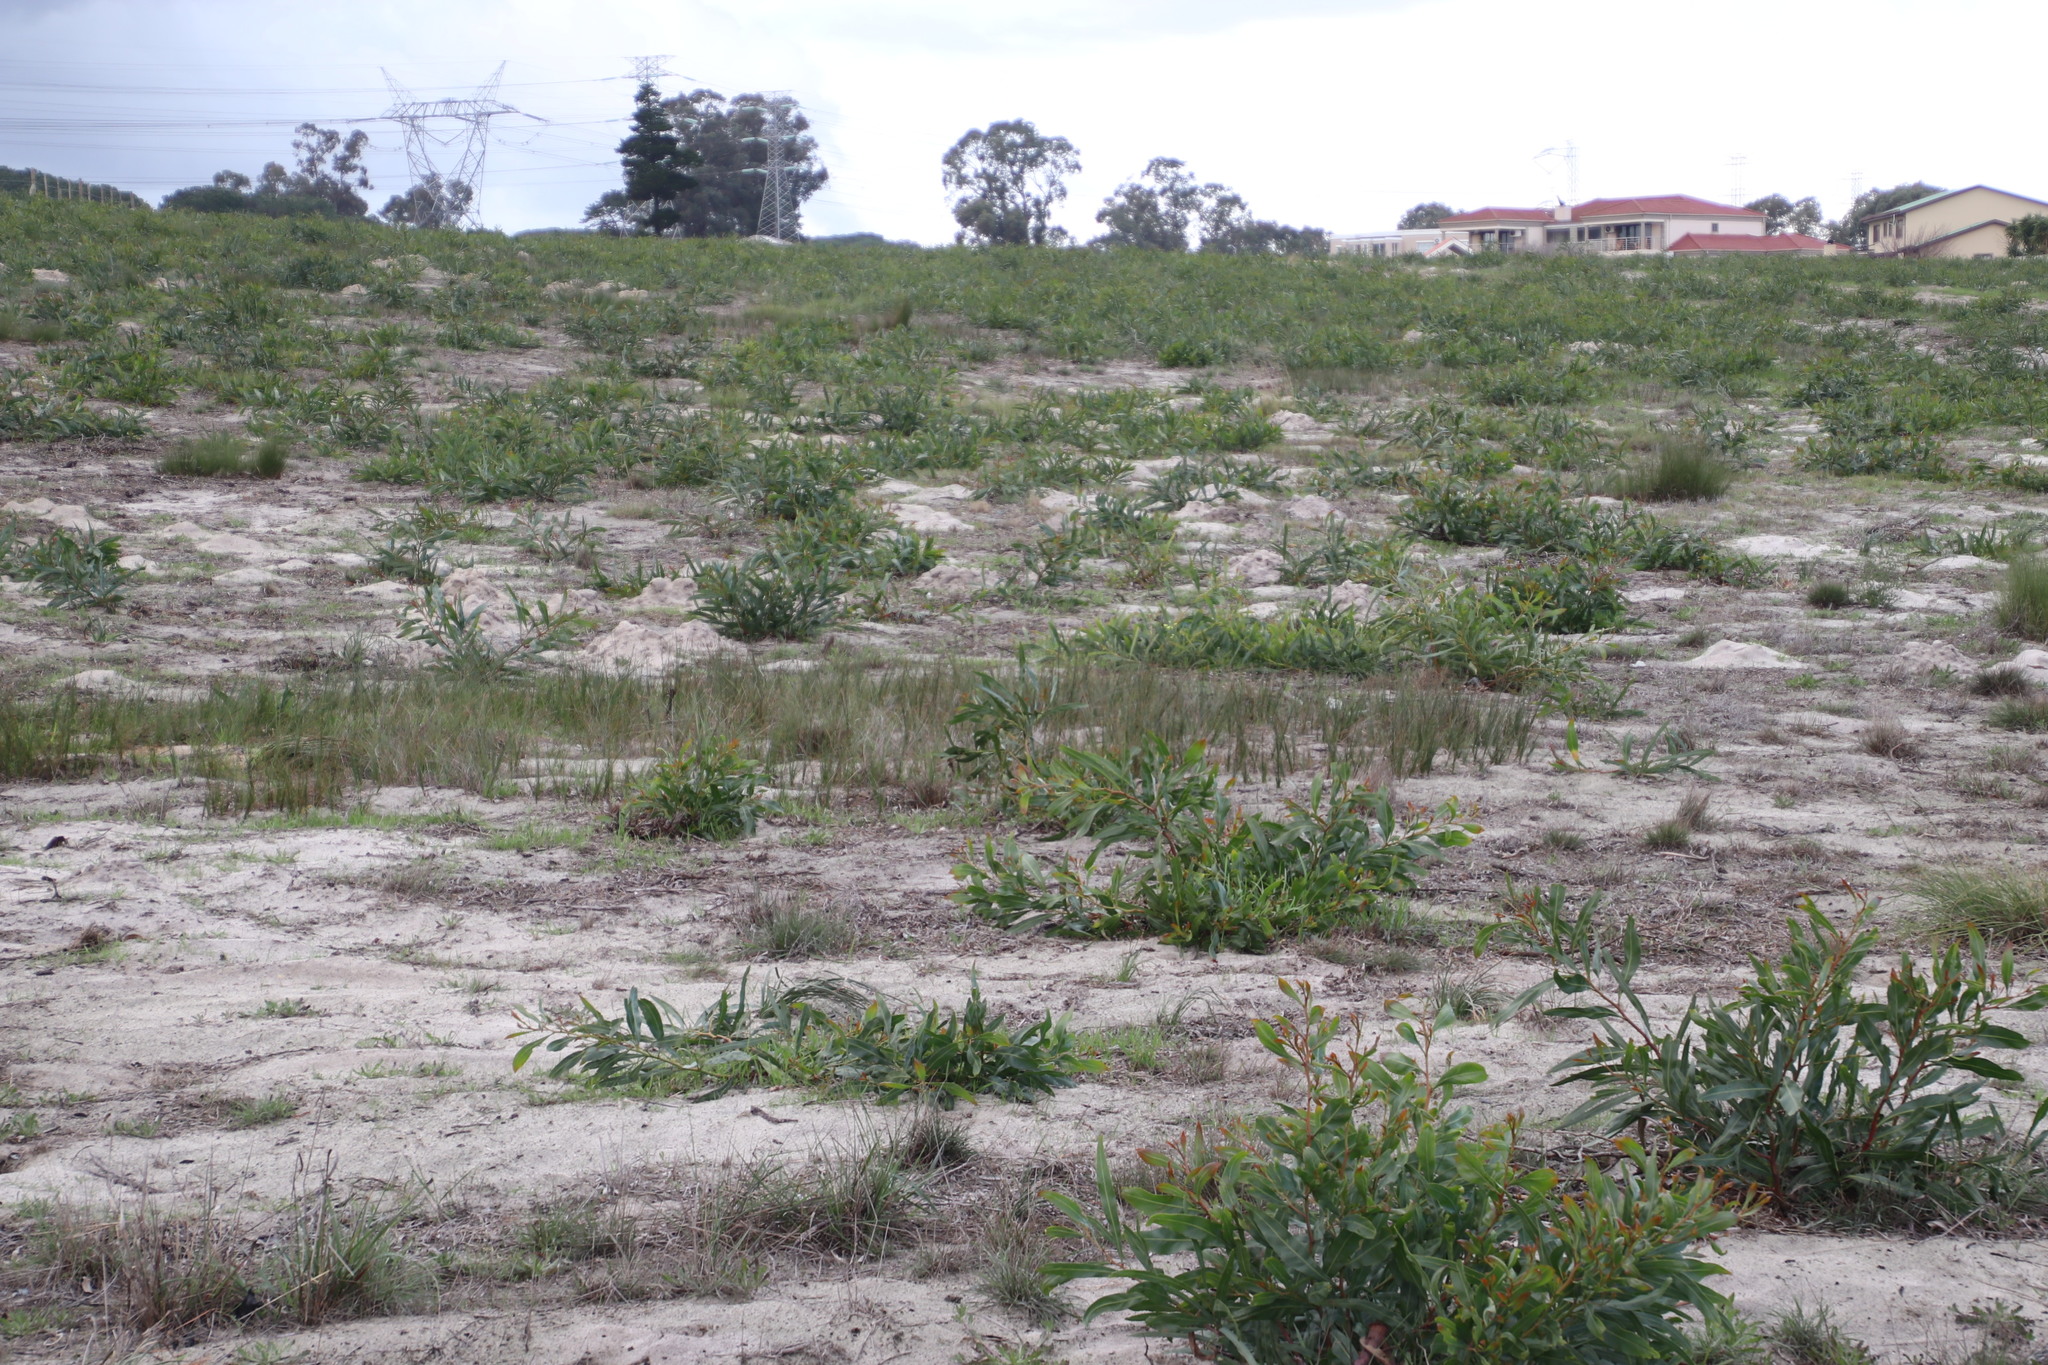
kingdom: Plantae
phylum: Tracheophyta
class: Liliopsida
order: Poales
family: Cyperaceae
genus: Ficinia
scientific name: Ficinia secunda
